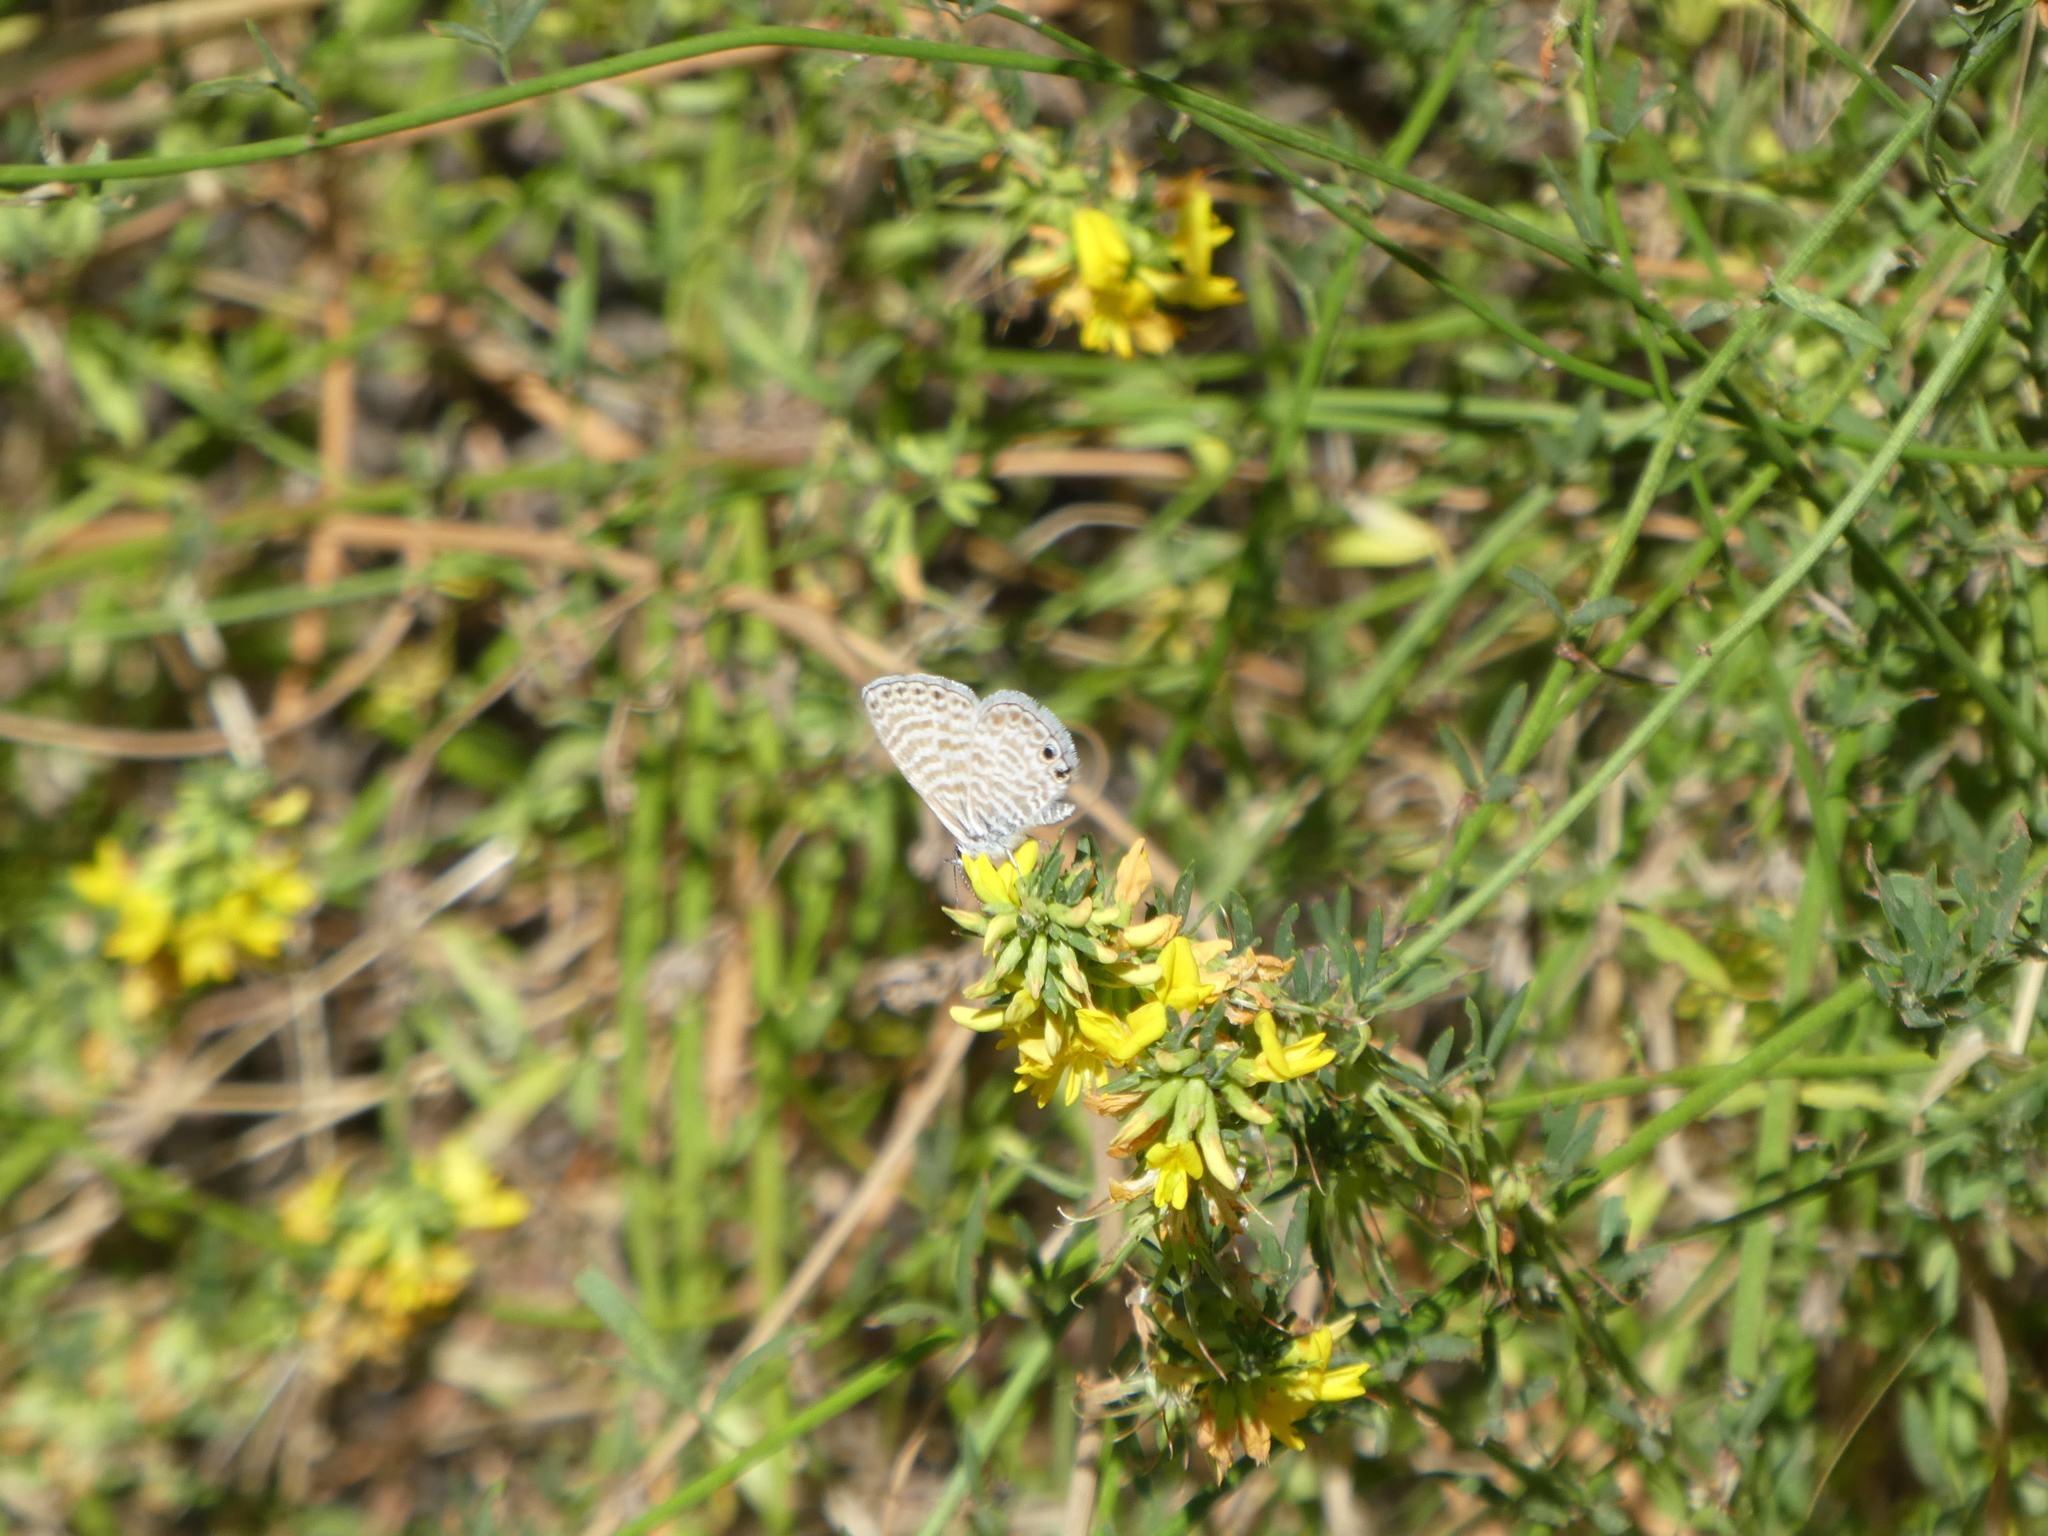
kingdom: Animalia
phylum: Arthropoda
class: Insecta
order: Lepidoptera
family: Lycaenidae
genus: Leptotes
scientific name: Leptotes marina
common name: Marine blue
